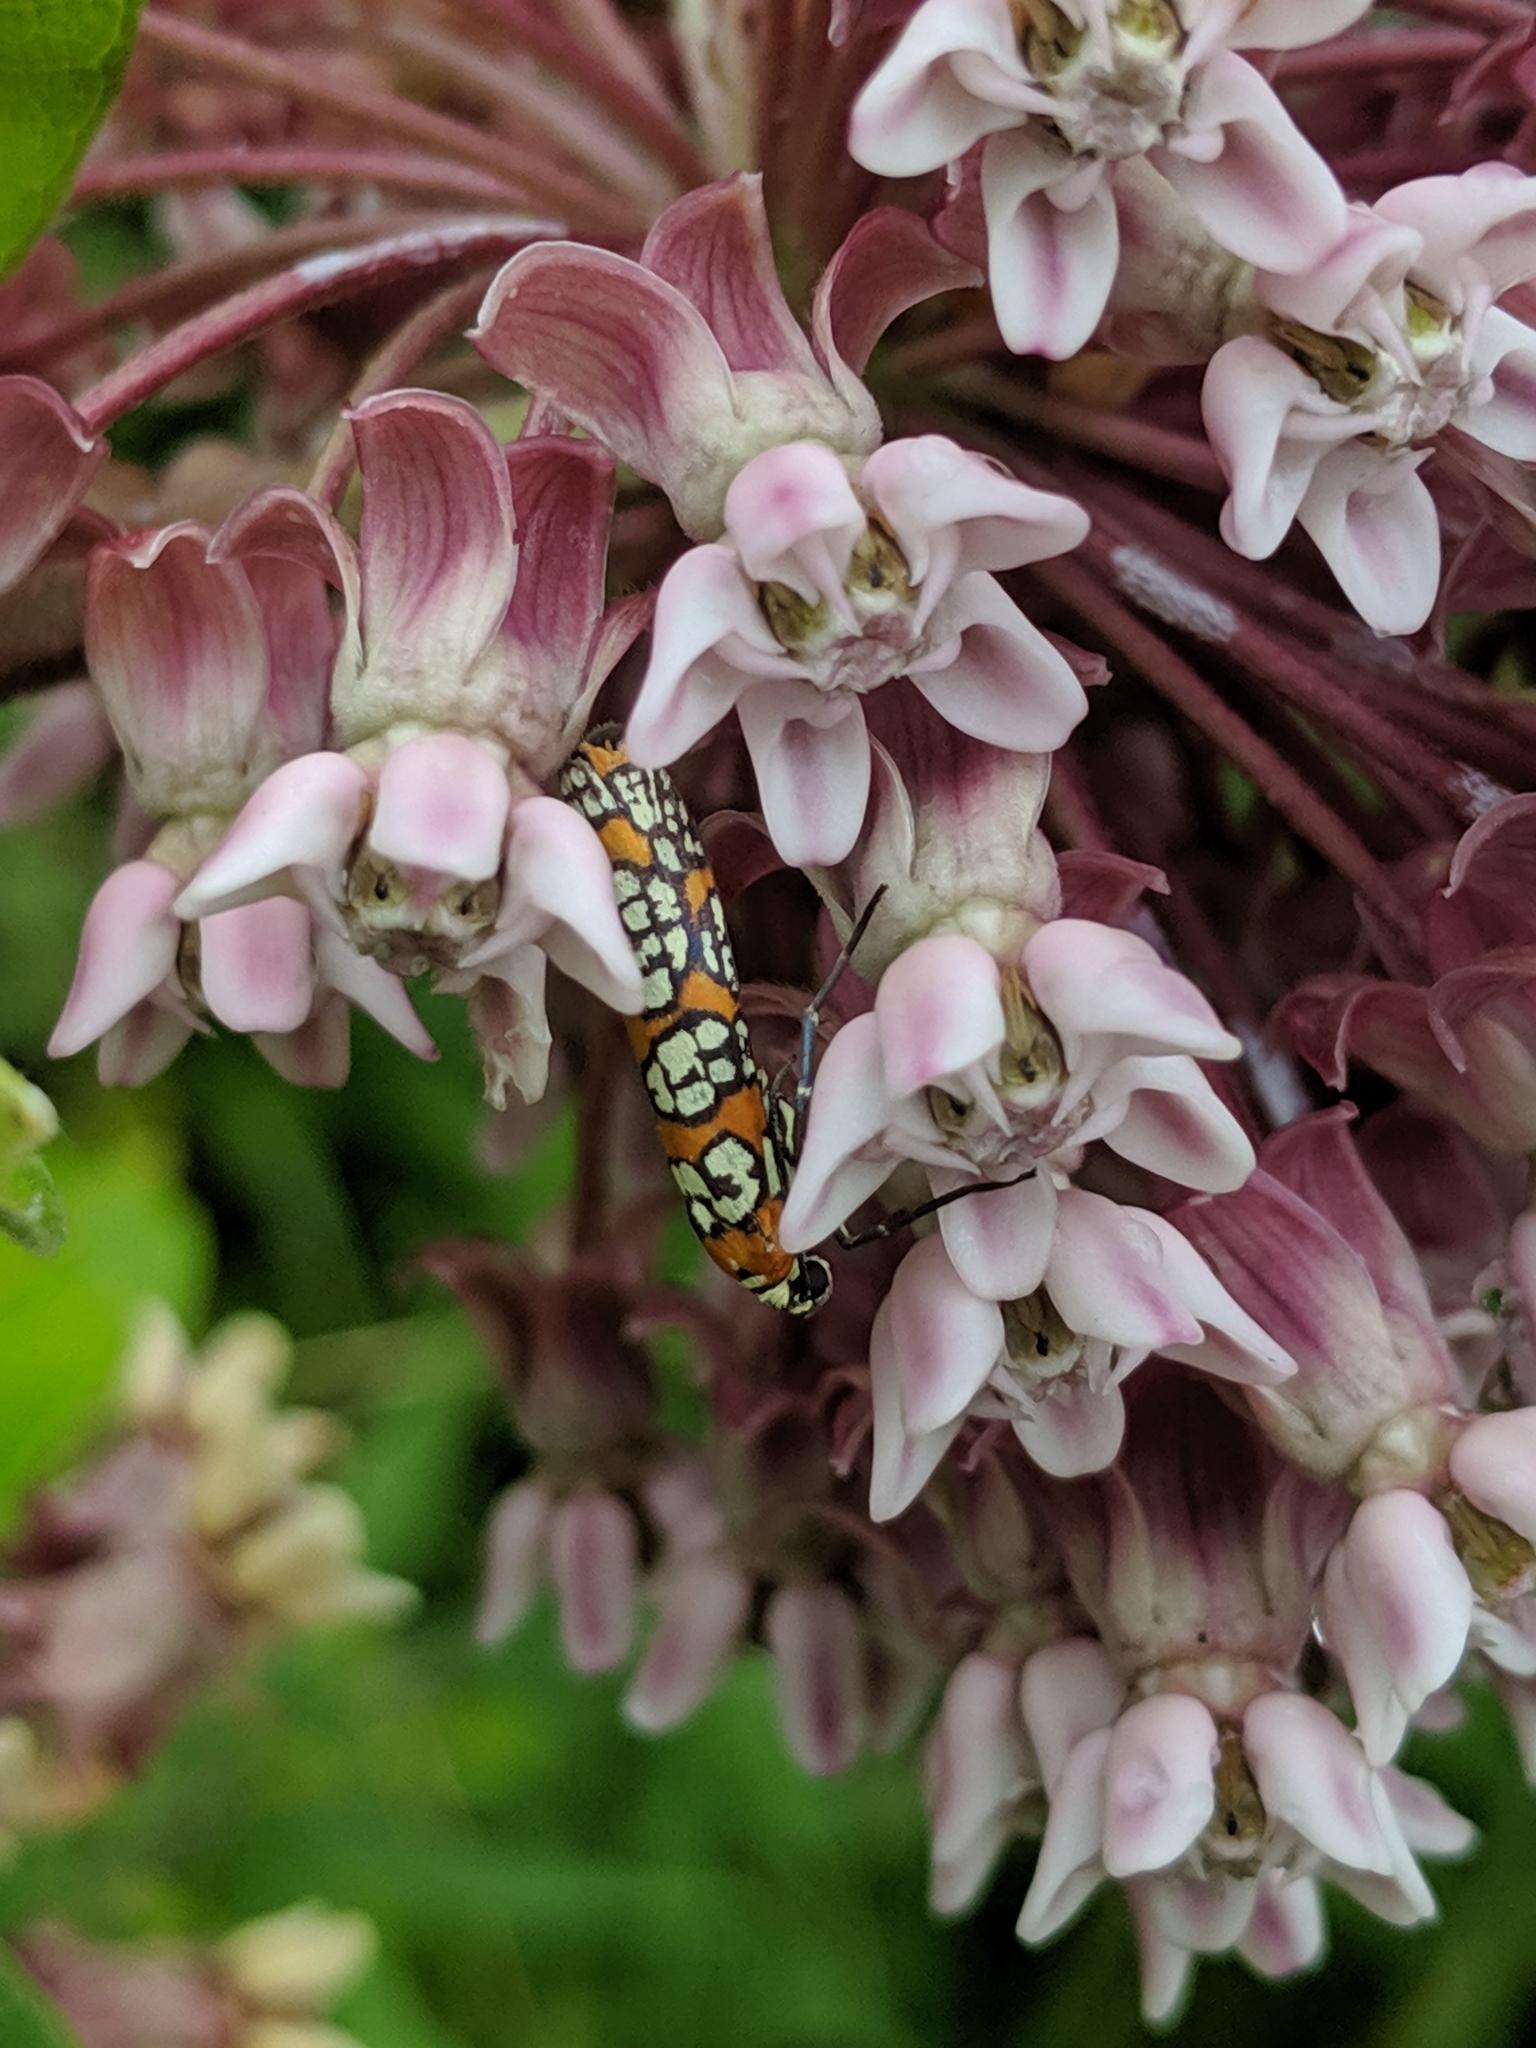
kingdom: Animalia
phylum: Arthropoda
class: Insecta
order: Lepidoptera
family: Attevidae
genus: Atteva
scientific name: Atteva punctella
